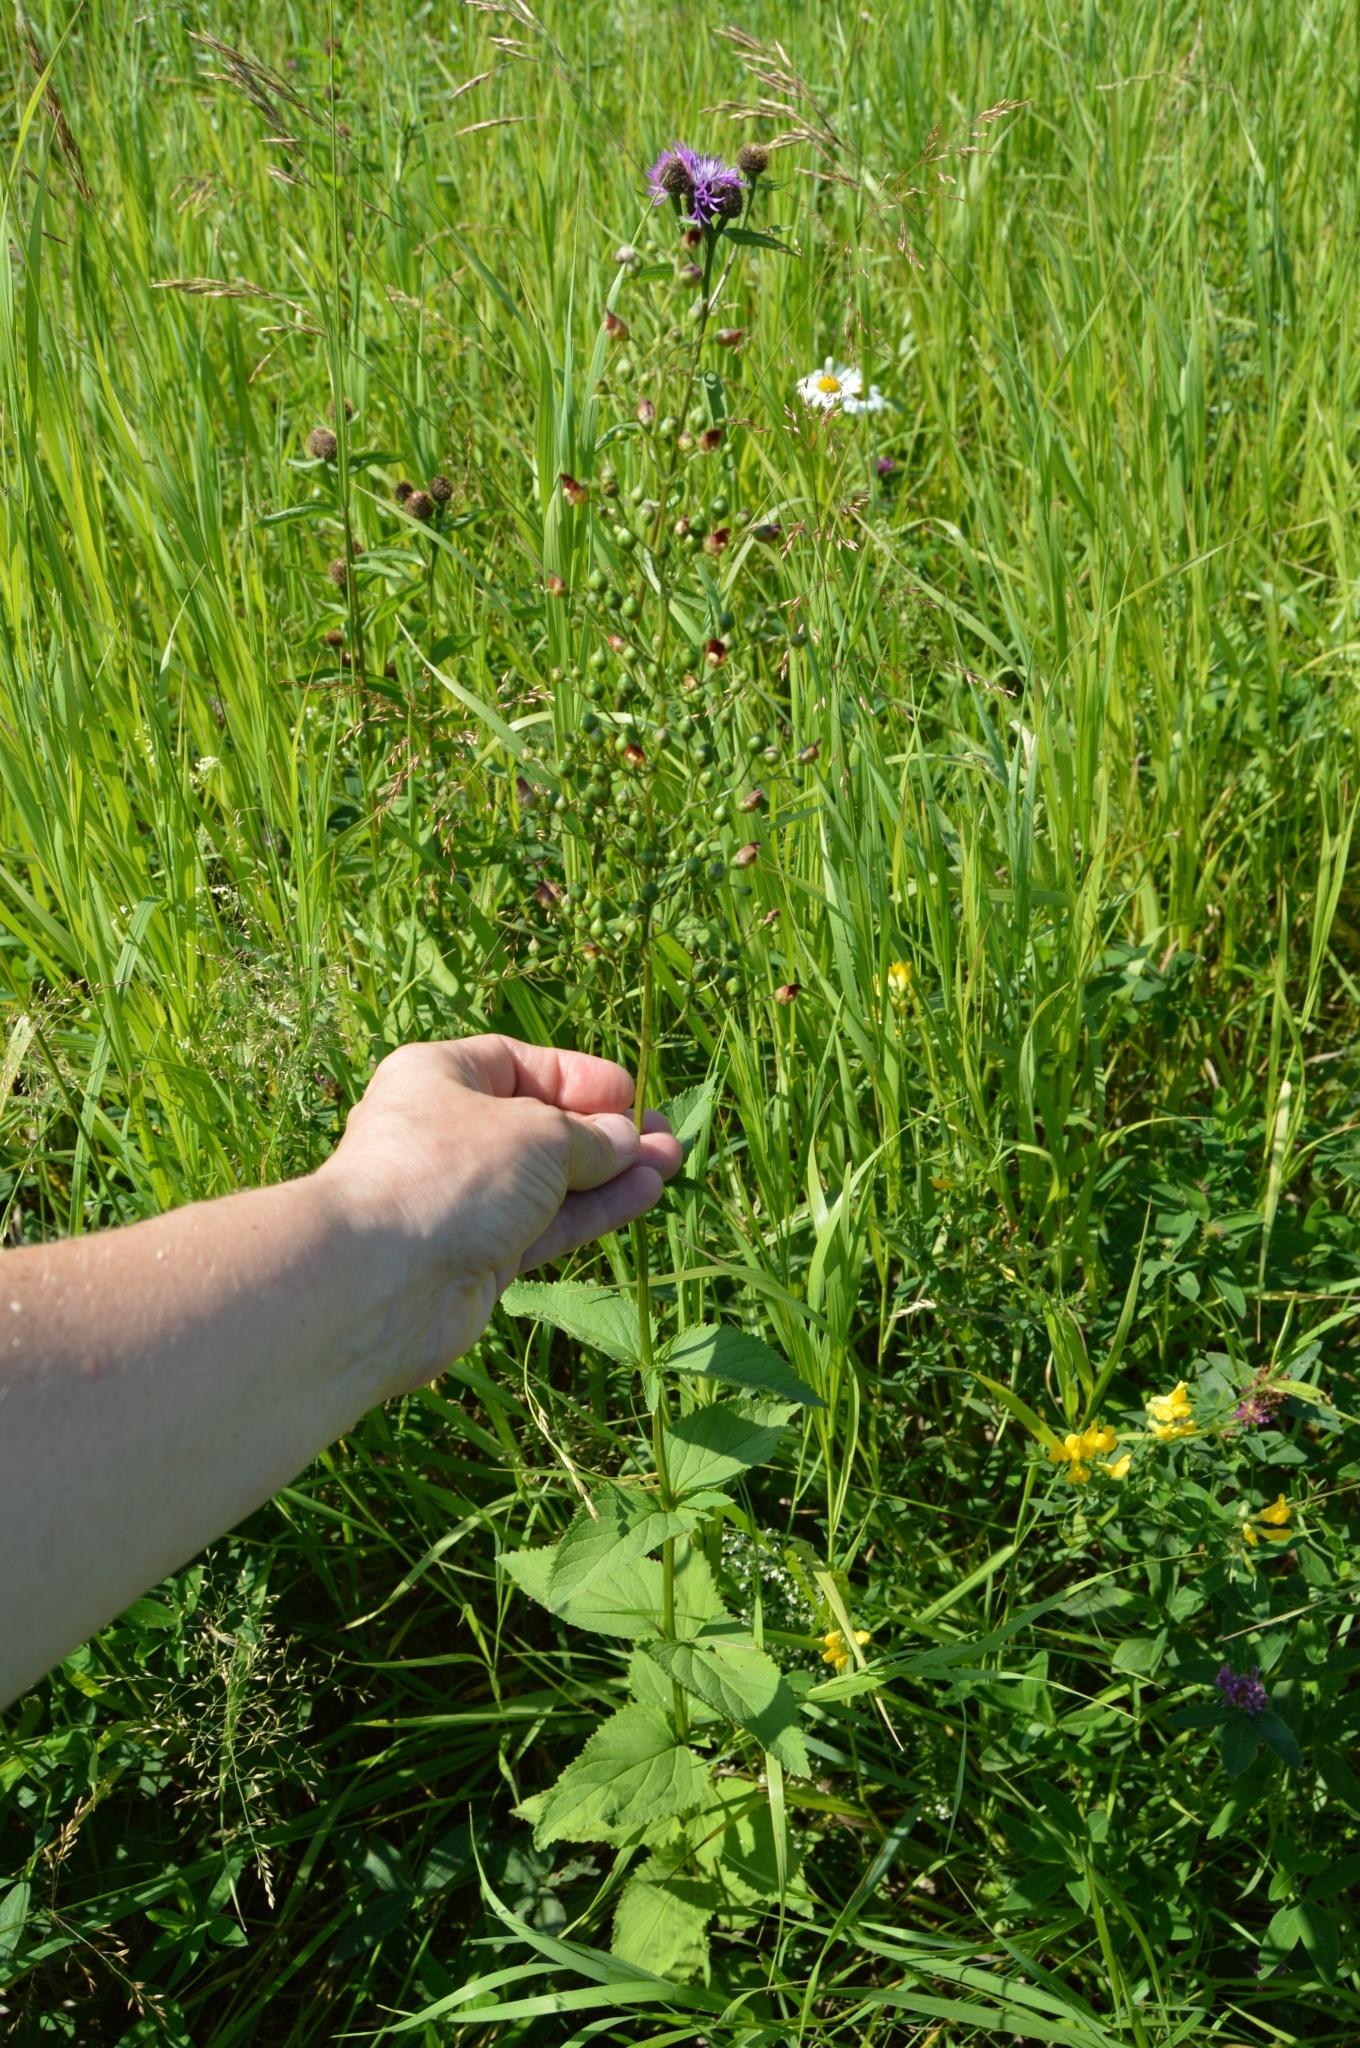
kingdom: Plantae
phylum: Tracheophyta
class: Magnoliopsida
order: Lamiales
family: Scrophulariaceae
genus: Scrophularia
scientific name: Scrophularia nodosa
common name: Common figwort
